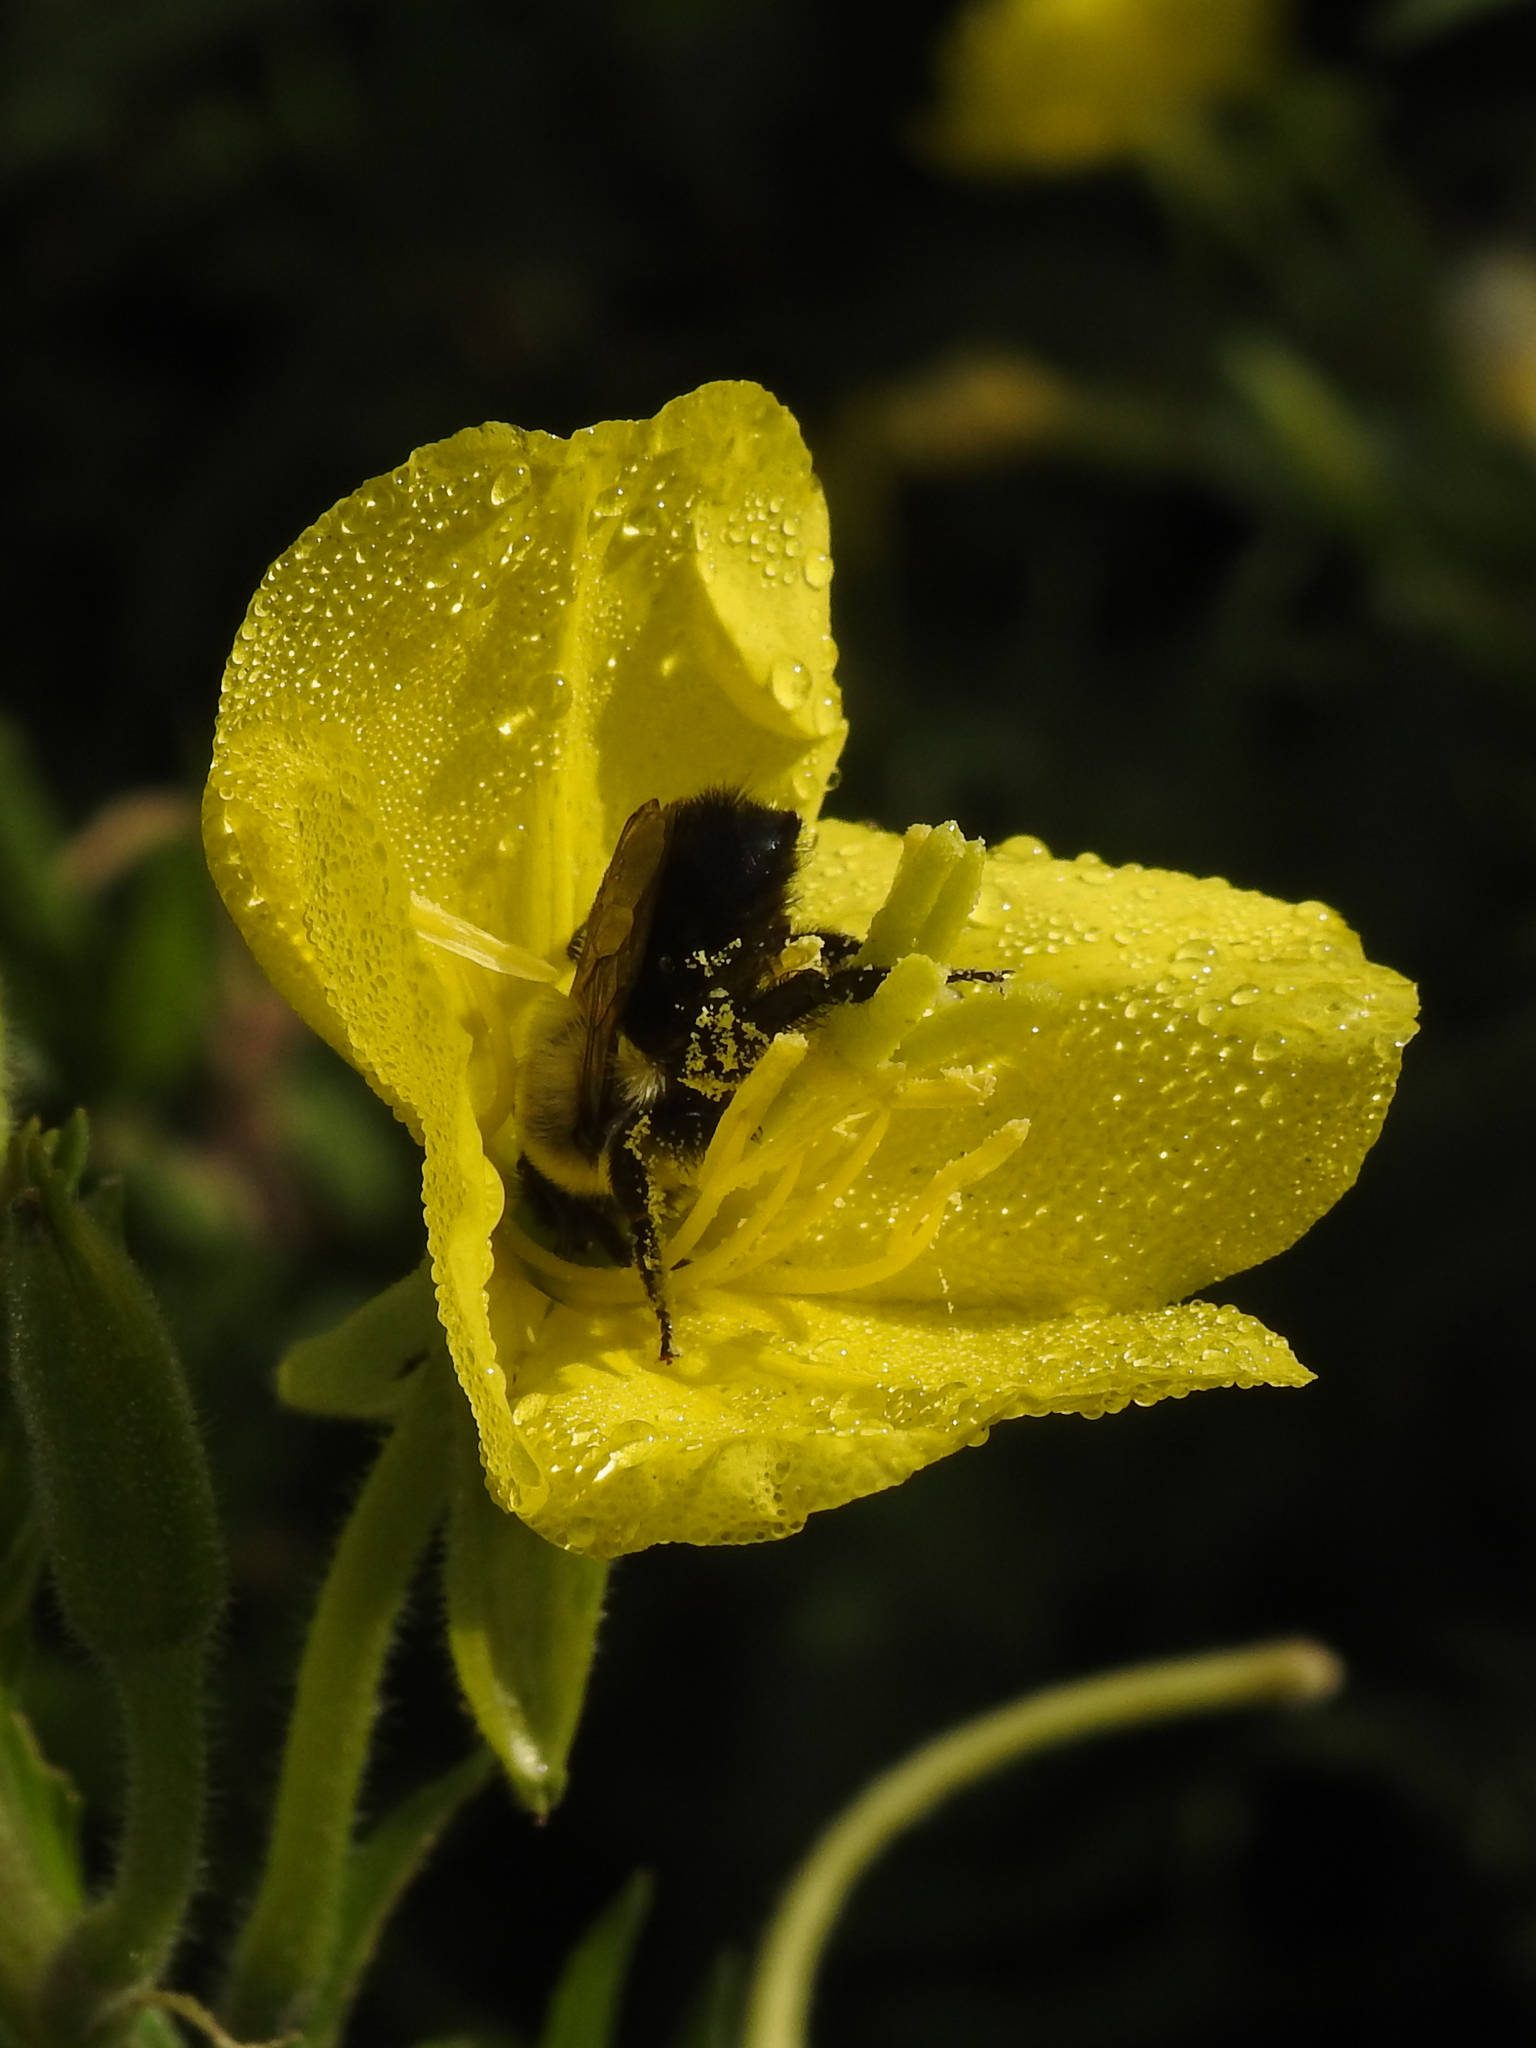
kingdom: Animalia
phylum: Arthropoda
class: Insecta
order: Hymenoptera
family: Apidae
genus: Bombus
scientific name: Bombus impatiens
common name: Common eastern bumble bee
